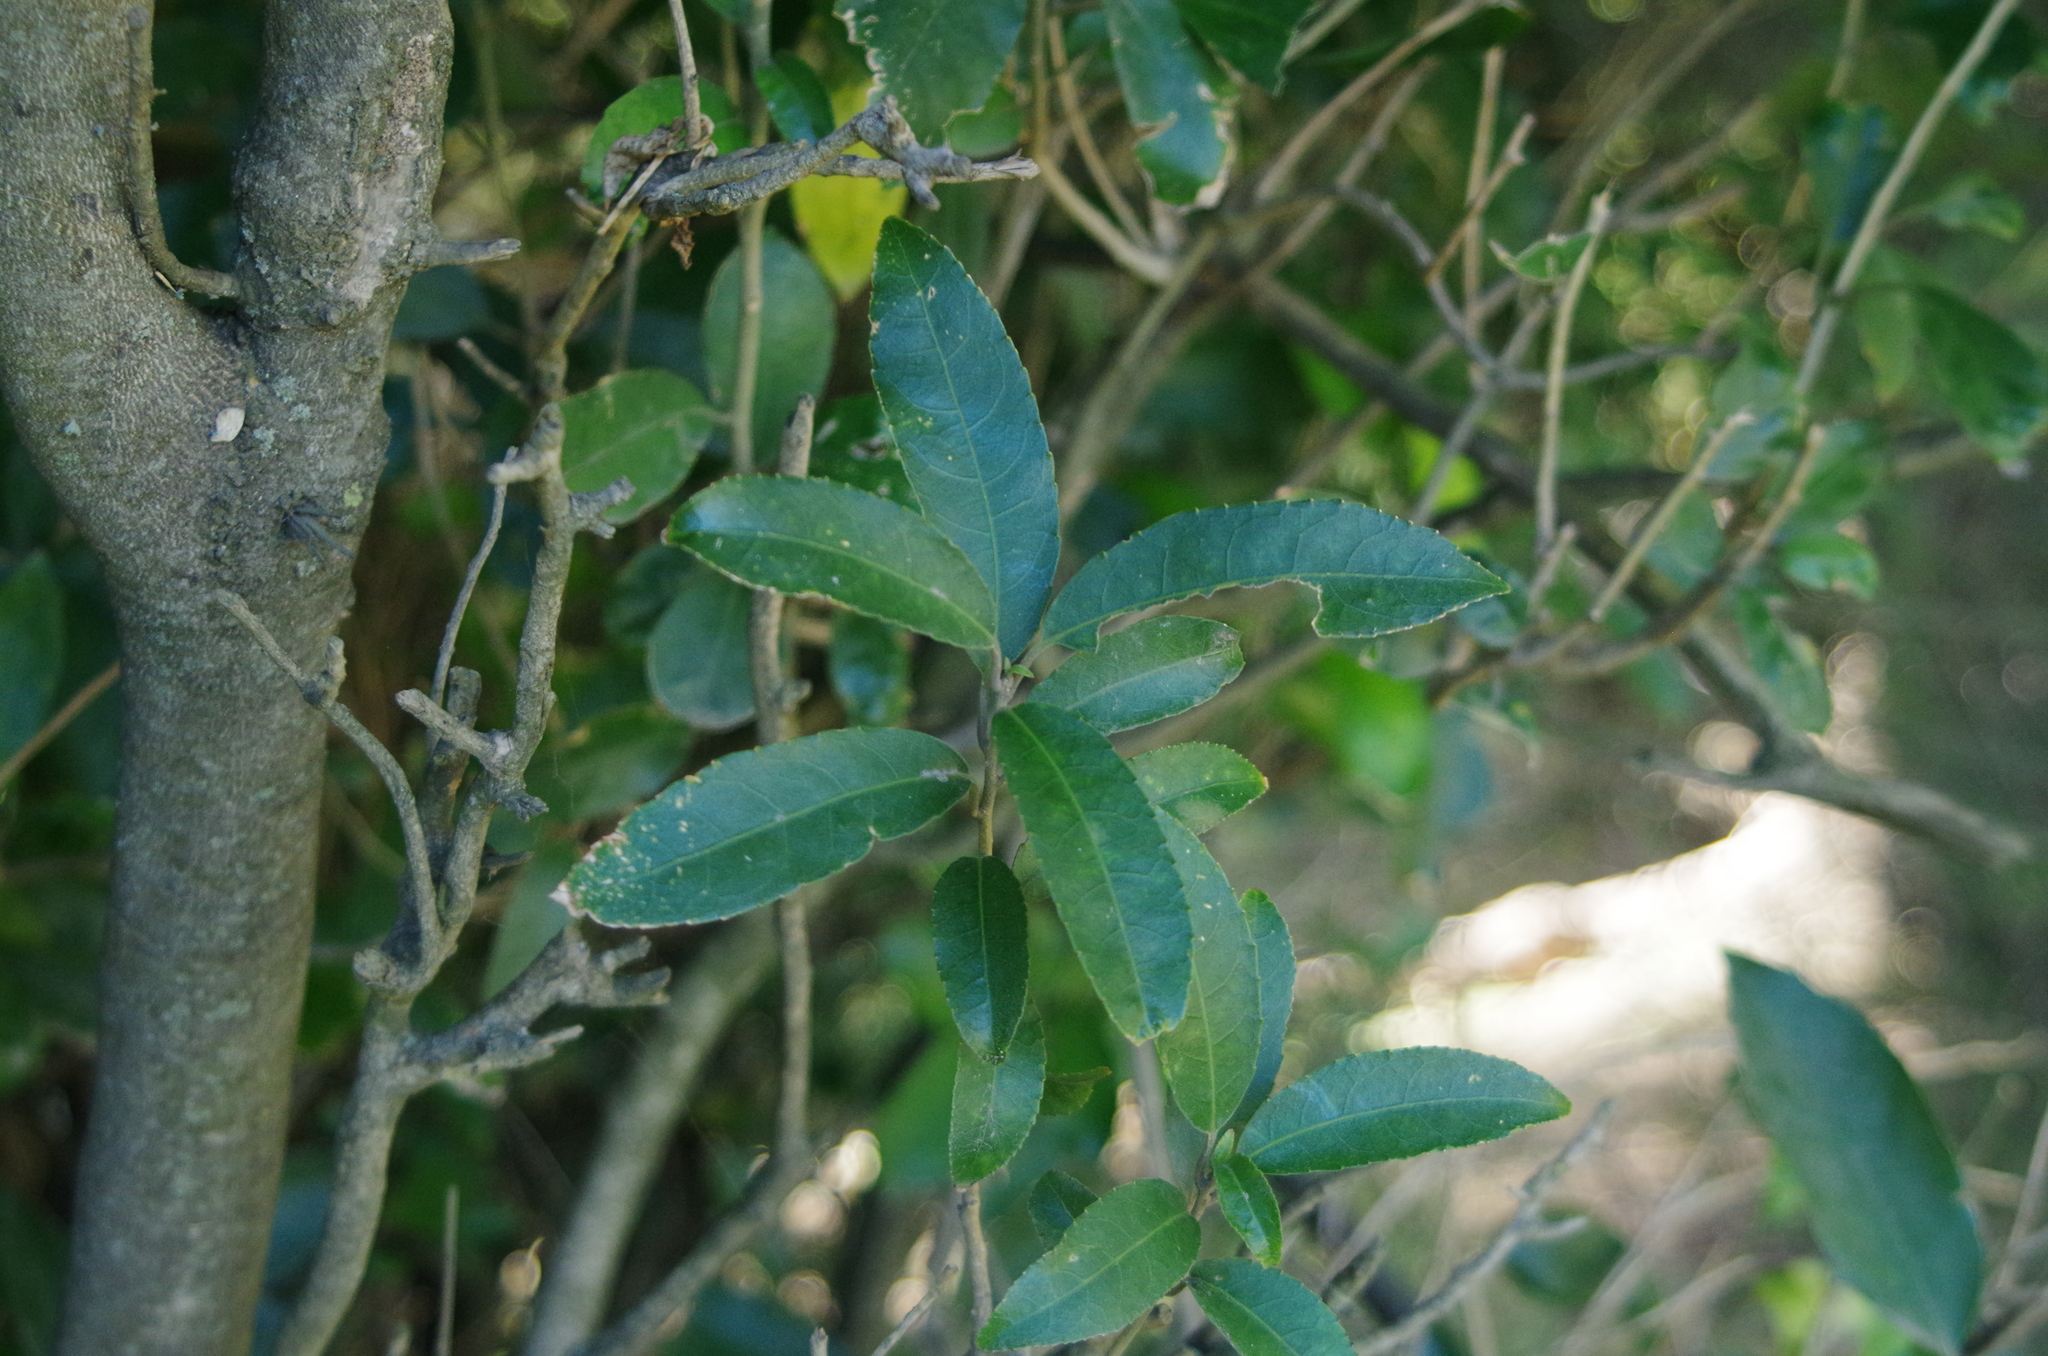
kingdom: Plantae
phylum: Tracheophyta
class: Magnoliopsida
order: Malpighiales
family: Violaceae
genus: Melicytus
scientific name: Melicytus ramiflorus
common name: Mahoe
